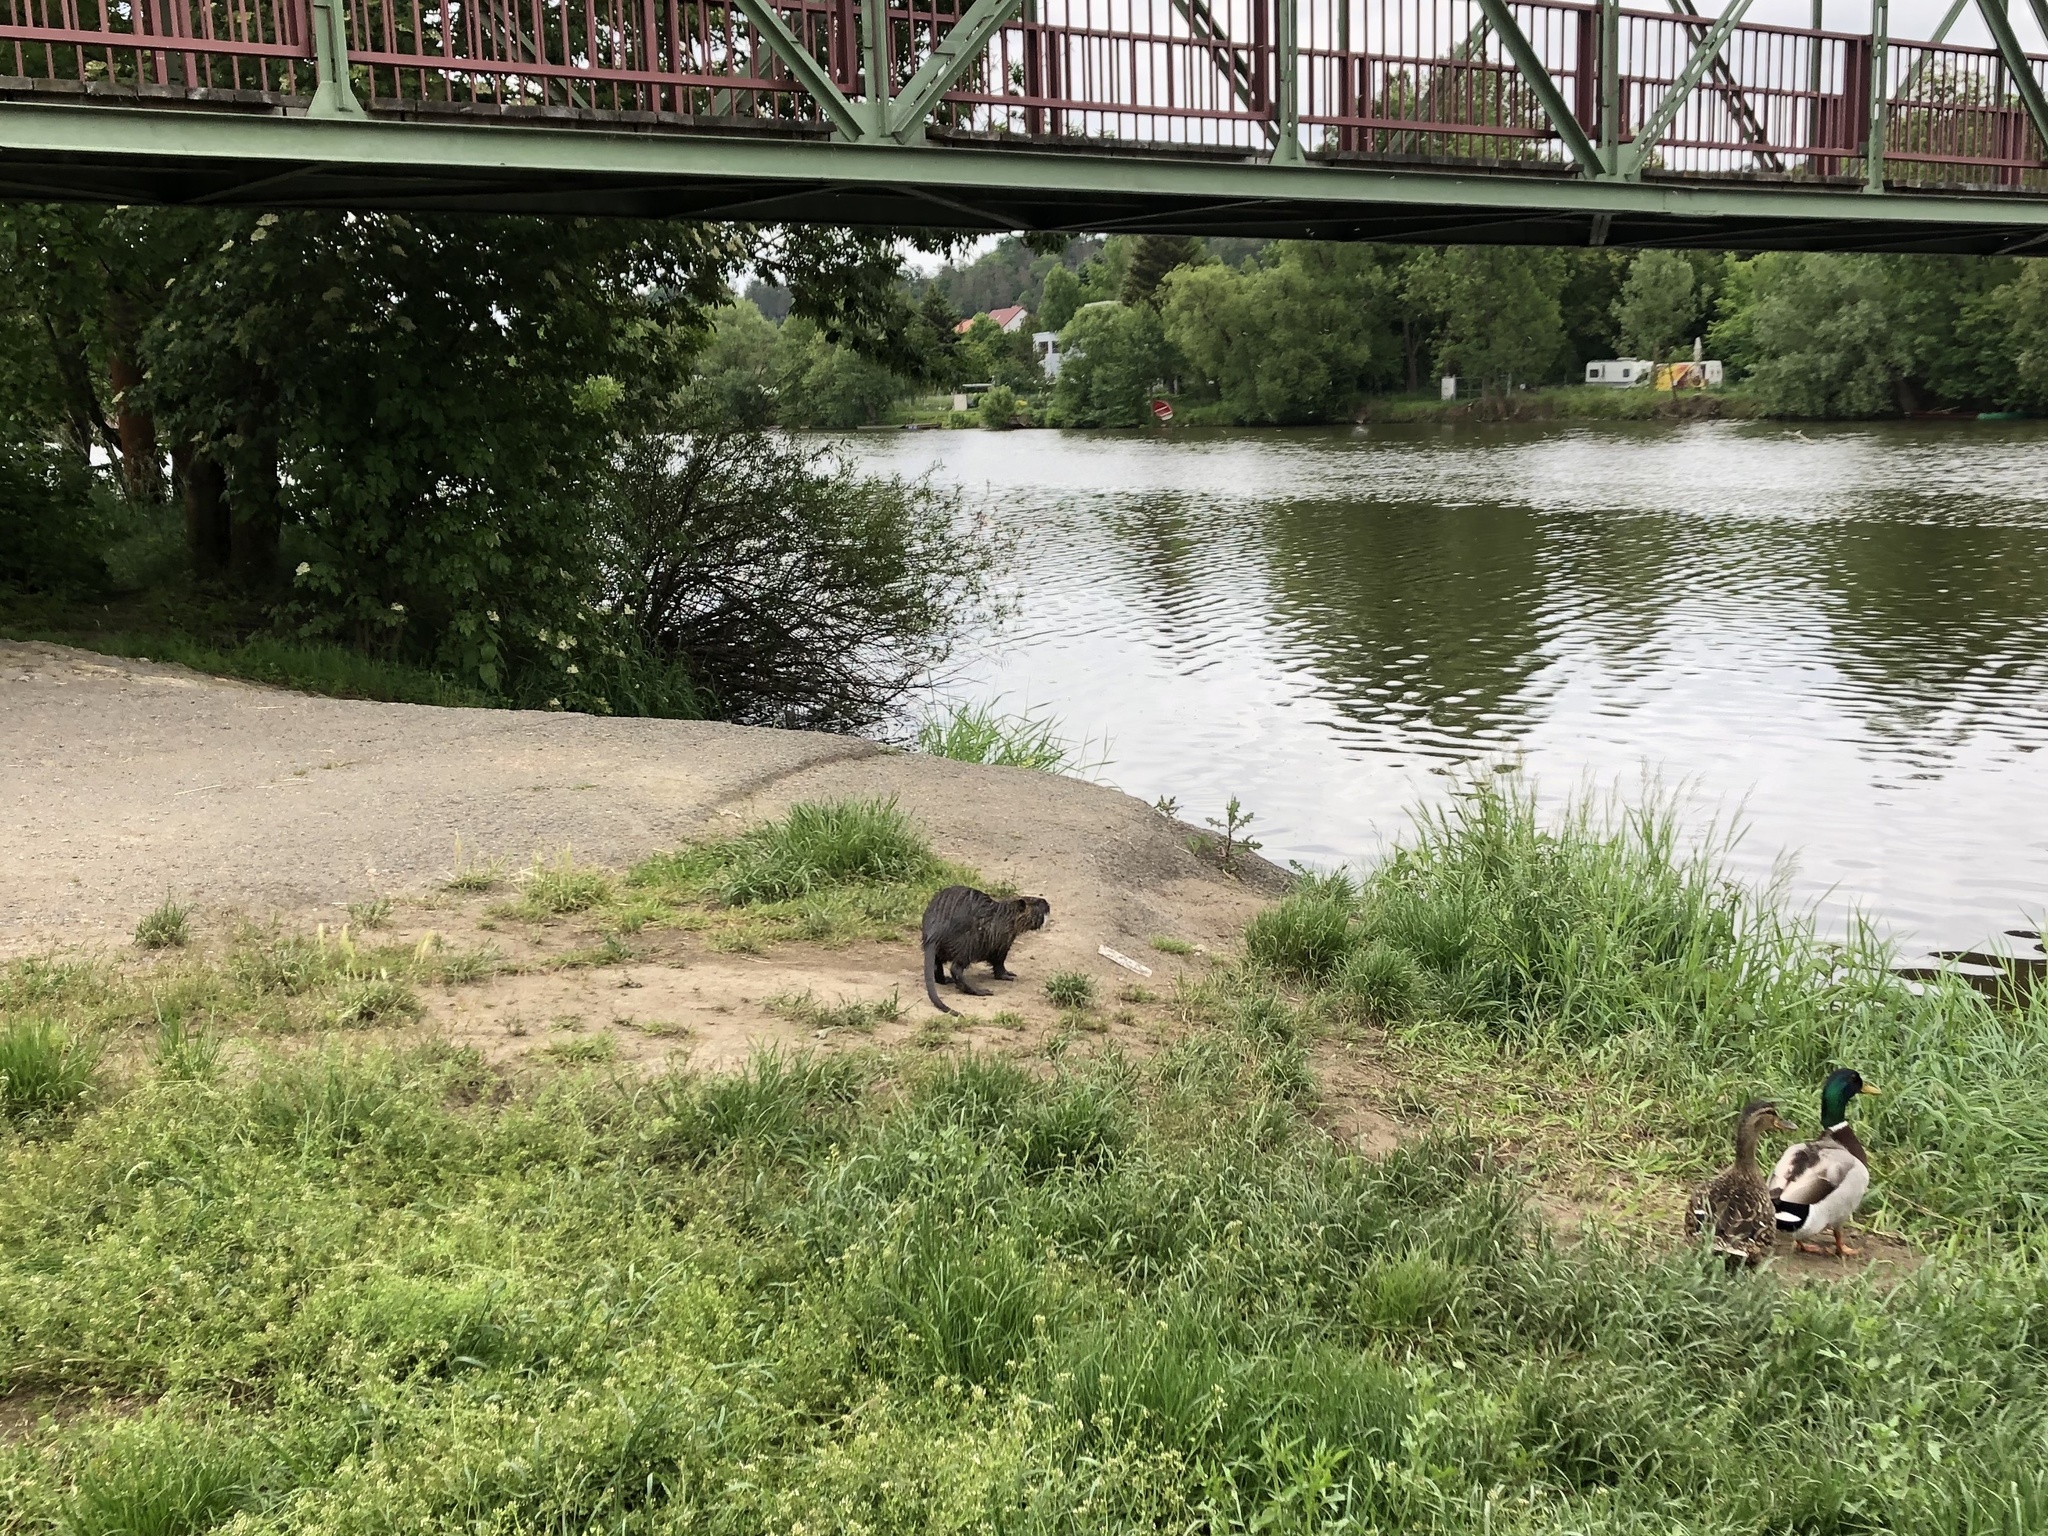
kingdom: Animalia
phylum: Chordata
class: Mammalia
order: Rodentia
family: Myocastoridae
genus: Myocastor
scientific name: Myocastor coypus
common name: Coypu
